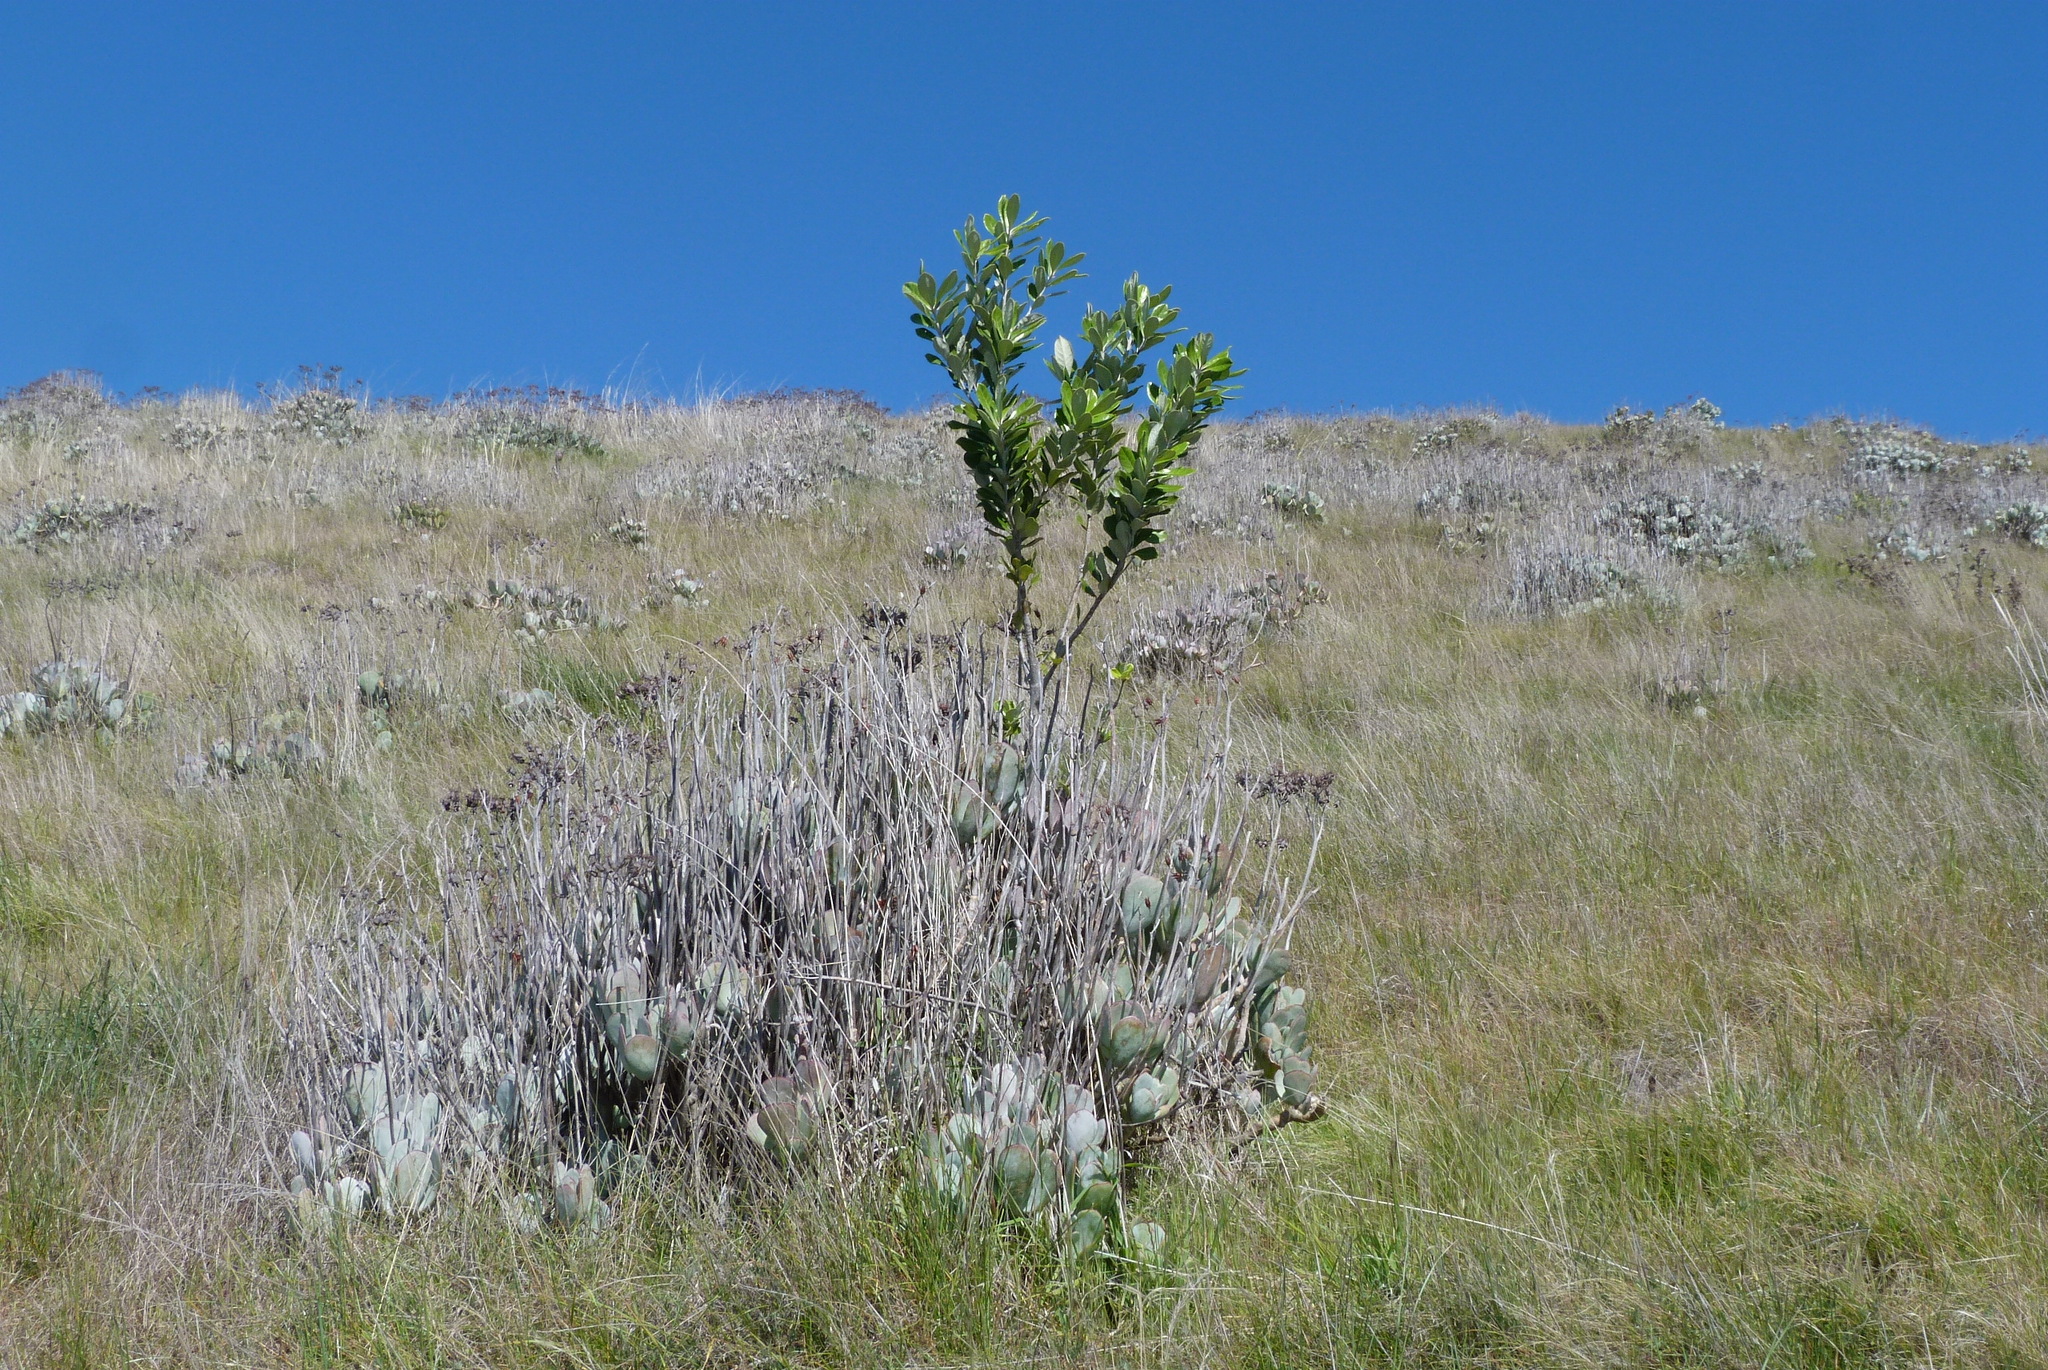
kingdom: Plantae
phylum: Tracheophyta
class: Magnoliopsida
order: Apiales
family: Pittosporaceae
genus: Pittosporum
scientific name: Pittosporum crassifolium
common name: Karo
